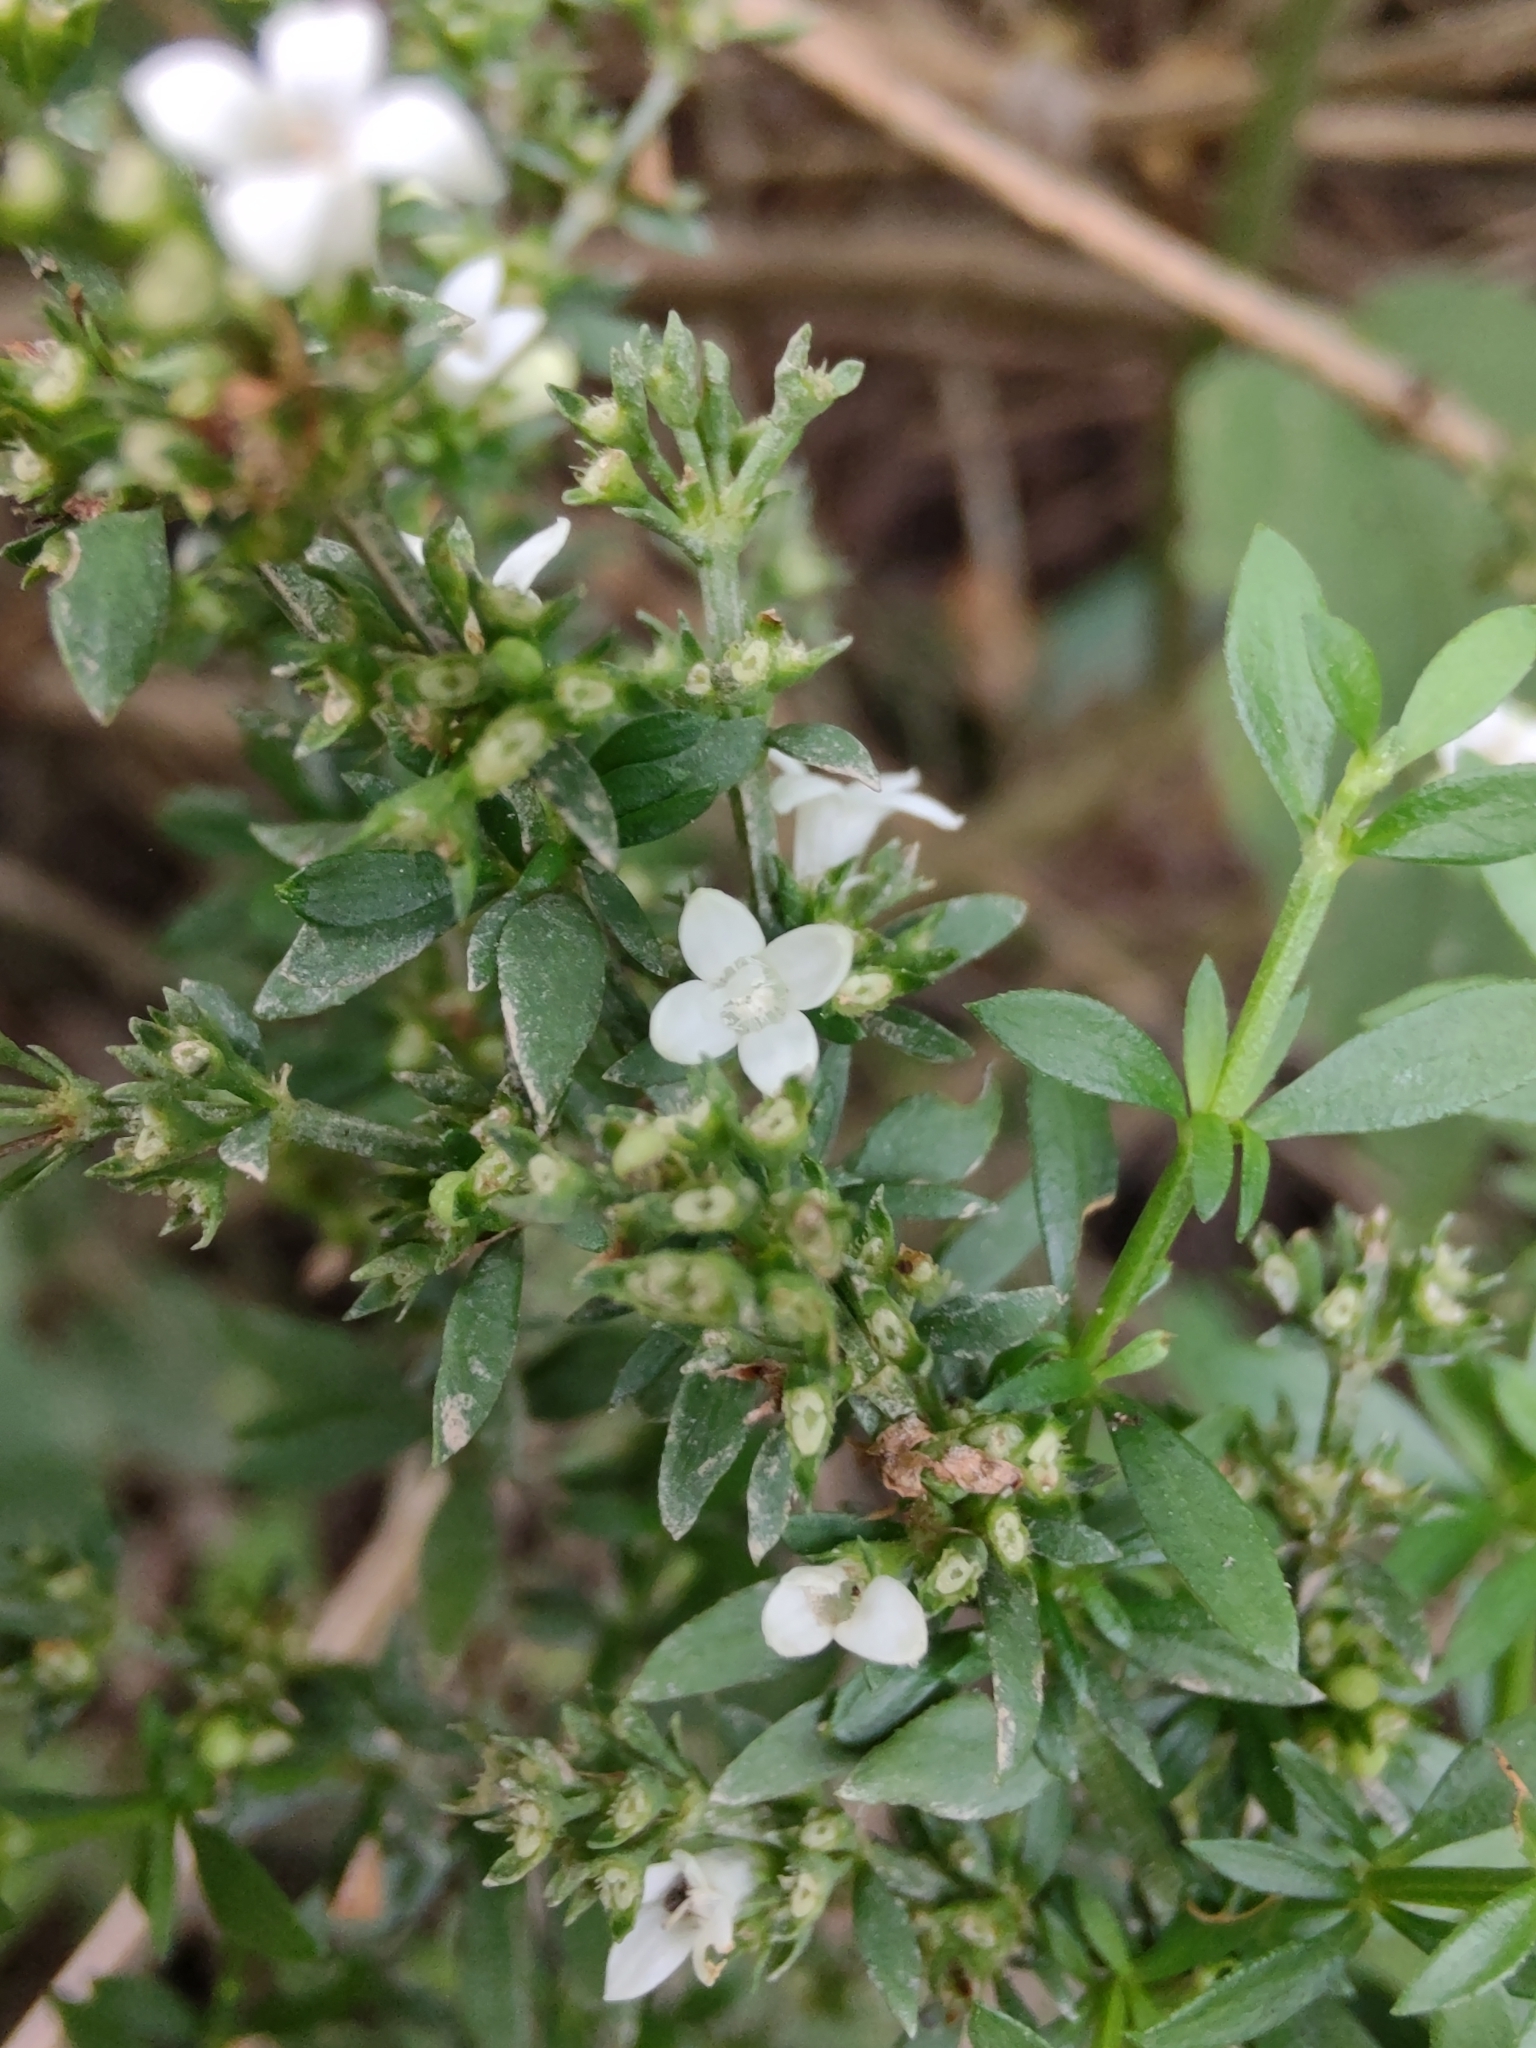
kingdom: Plantae
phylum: Tracheophyta
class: Magnoliopsida
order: Gentianales
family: Rubiaceae
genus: Galianthe
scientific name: Galianthe brasiliensis
